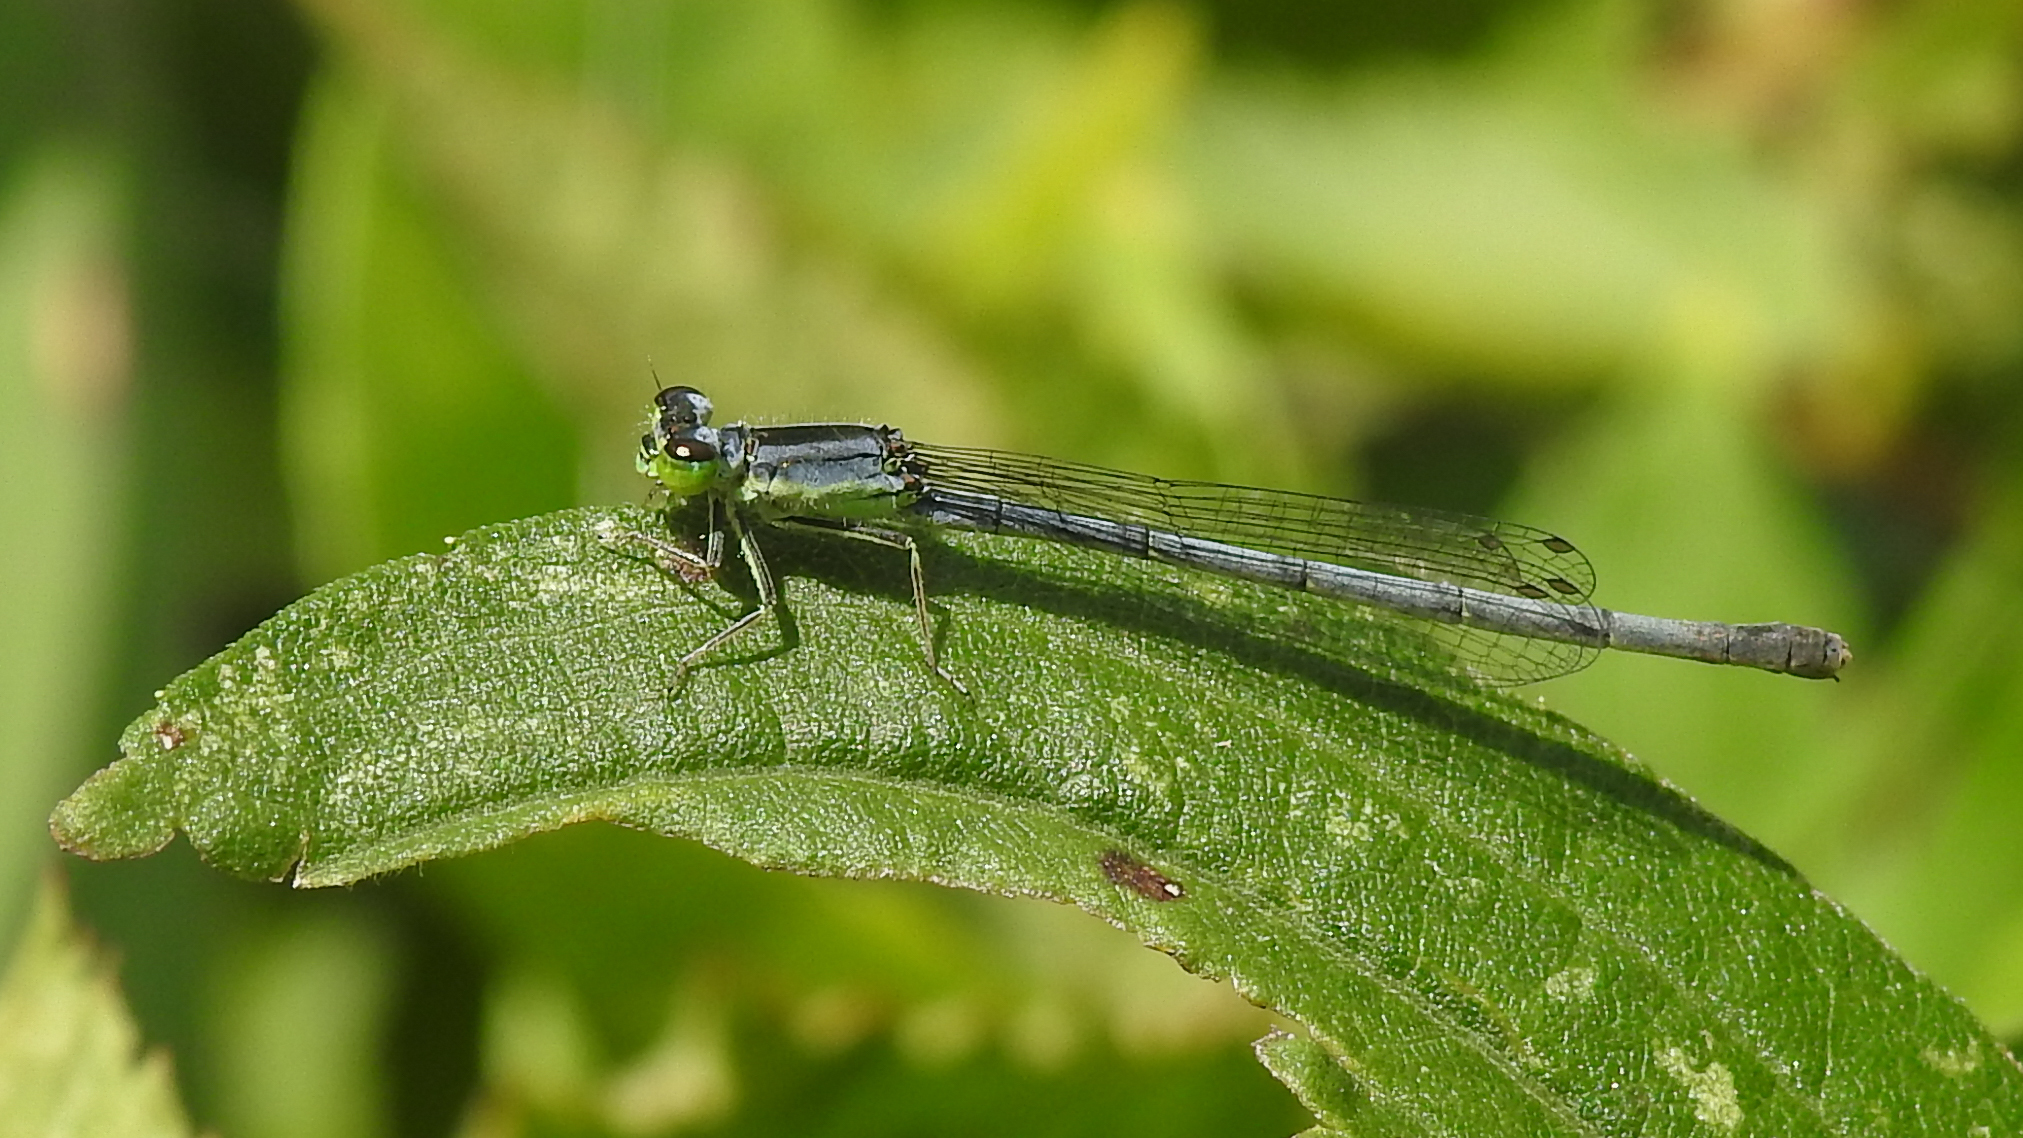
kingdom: Animalia
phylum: Arthropoda
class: Insecta
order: Odonata
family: Coenagrionidae
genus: Ischnura
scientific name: Ischnura verticalis
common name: Eastern forktail
